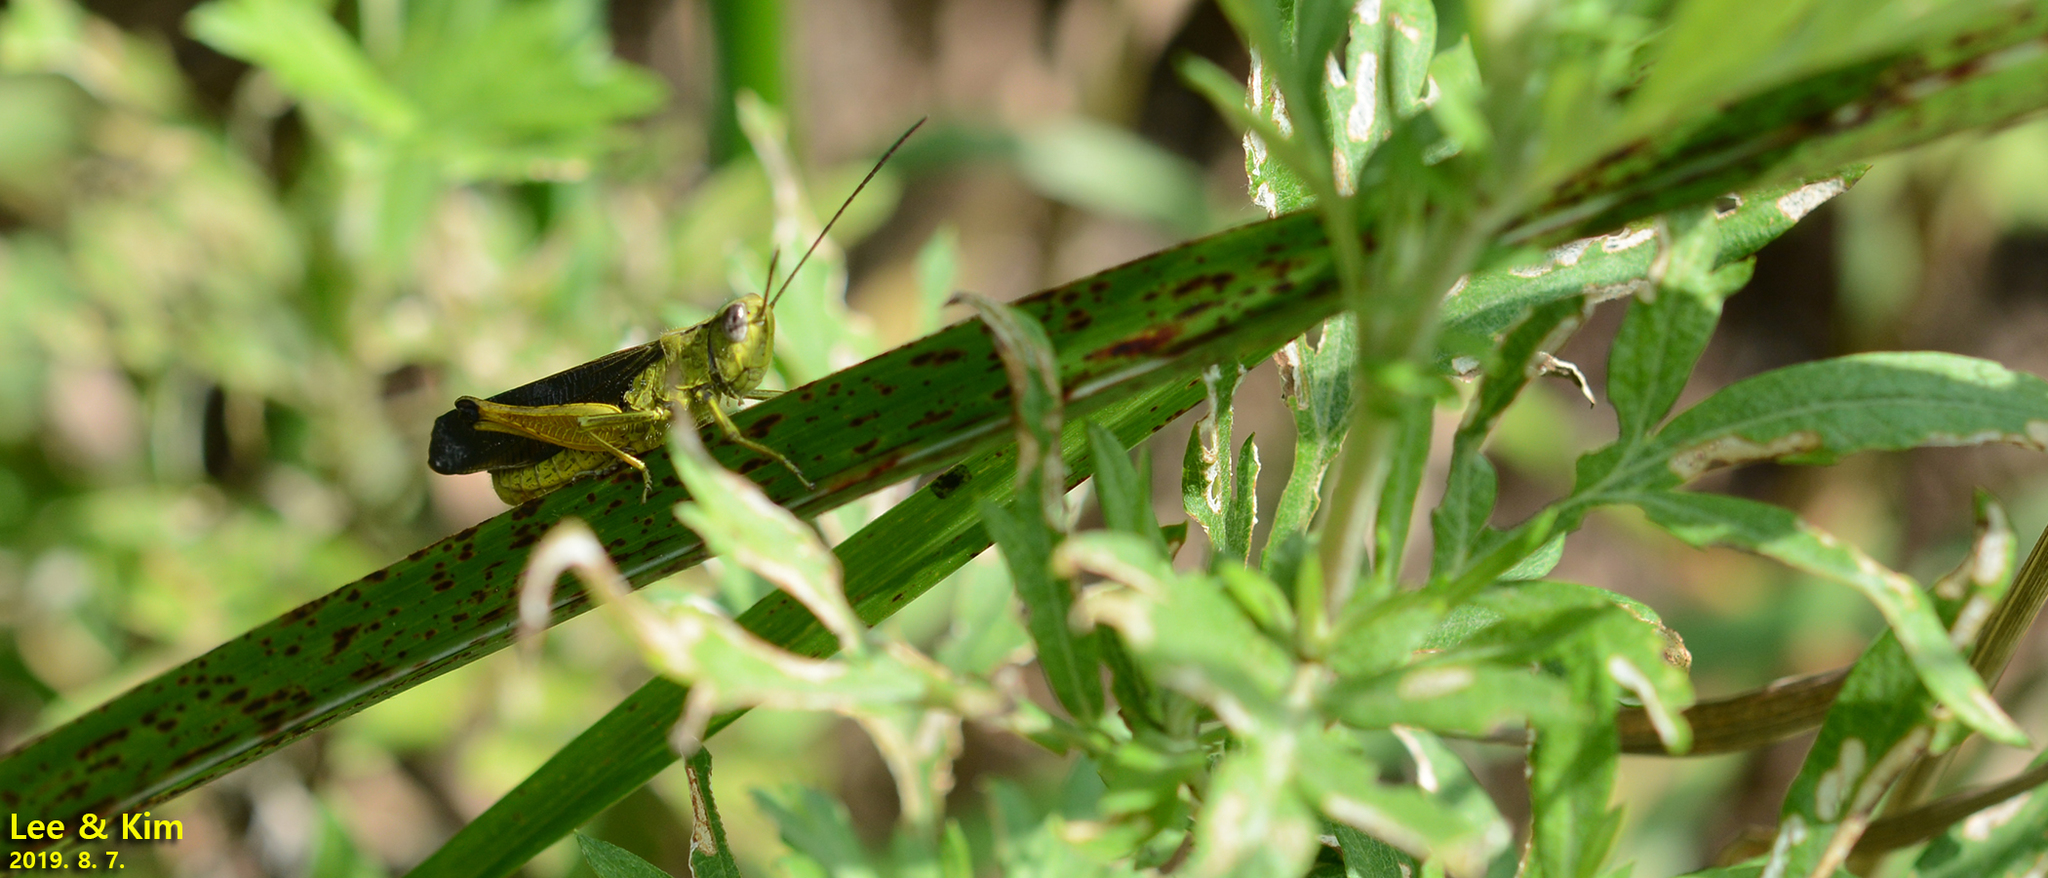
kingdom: Animalia
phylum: Arthropoda
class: Insecta
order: Orthoptera
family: Acrididae
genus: Megaulacobothrus
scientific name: Megaulacobothrus aethalinus
